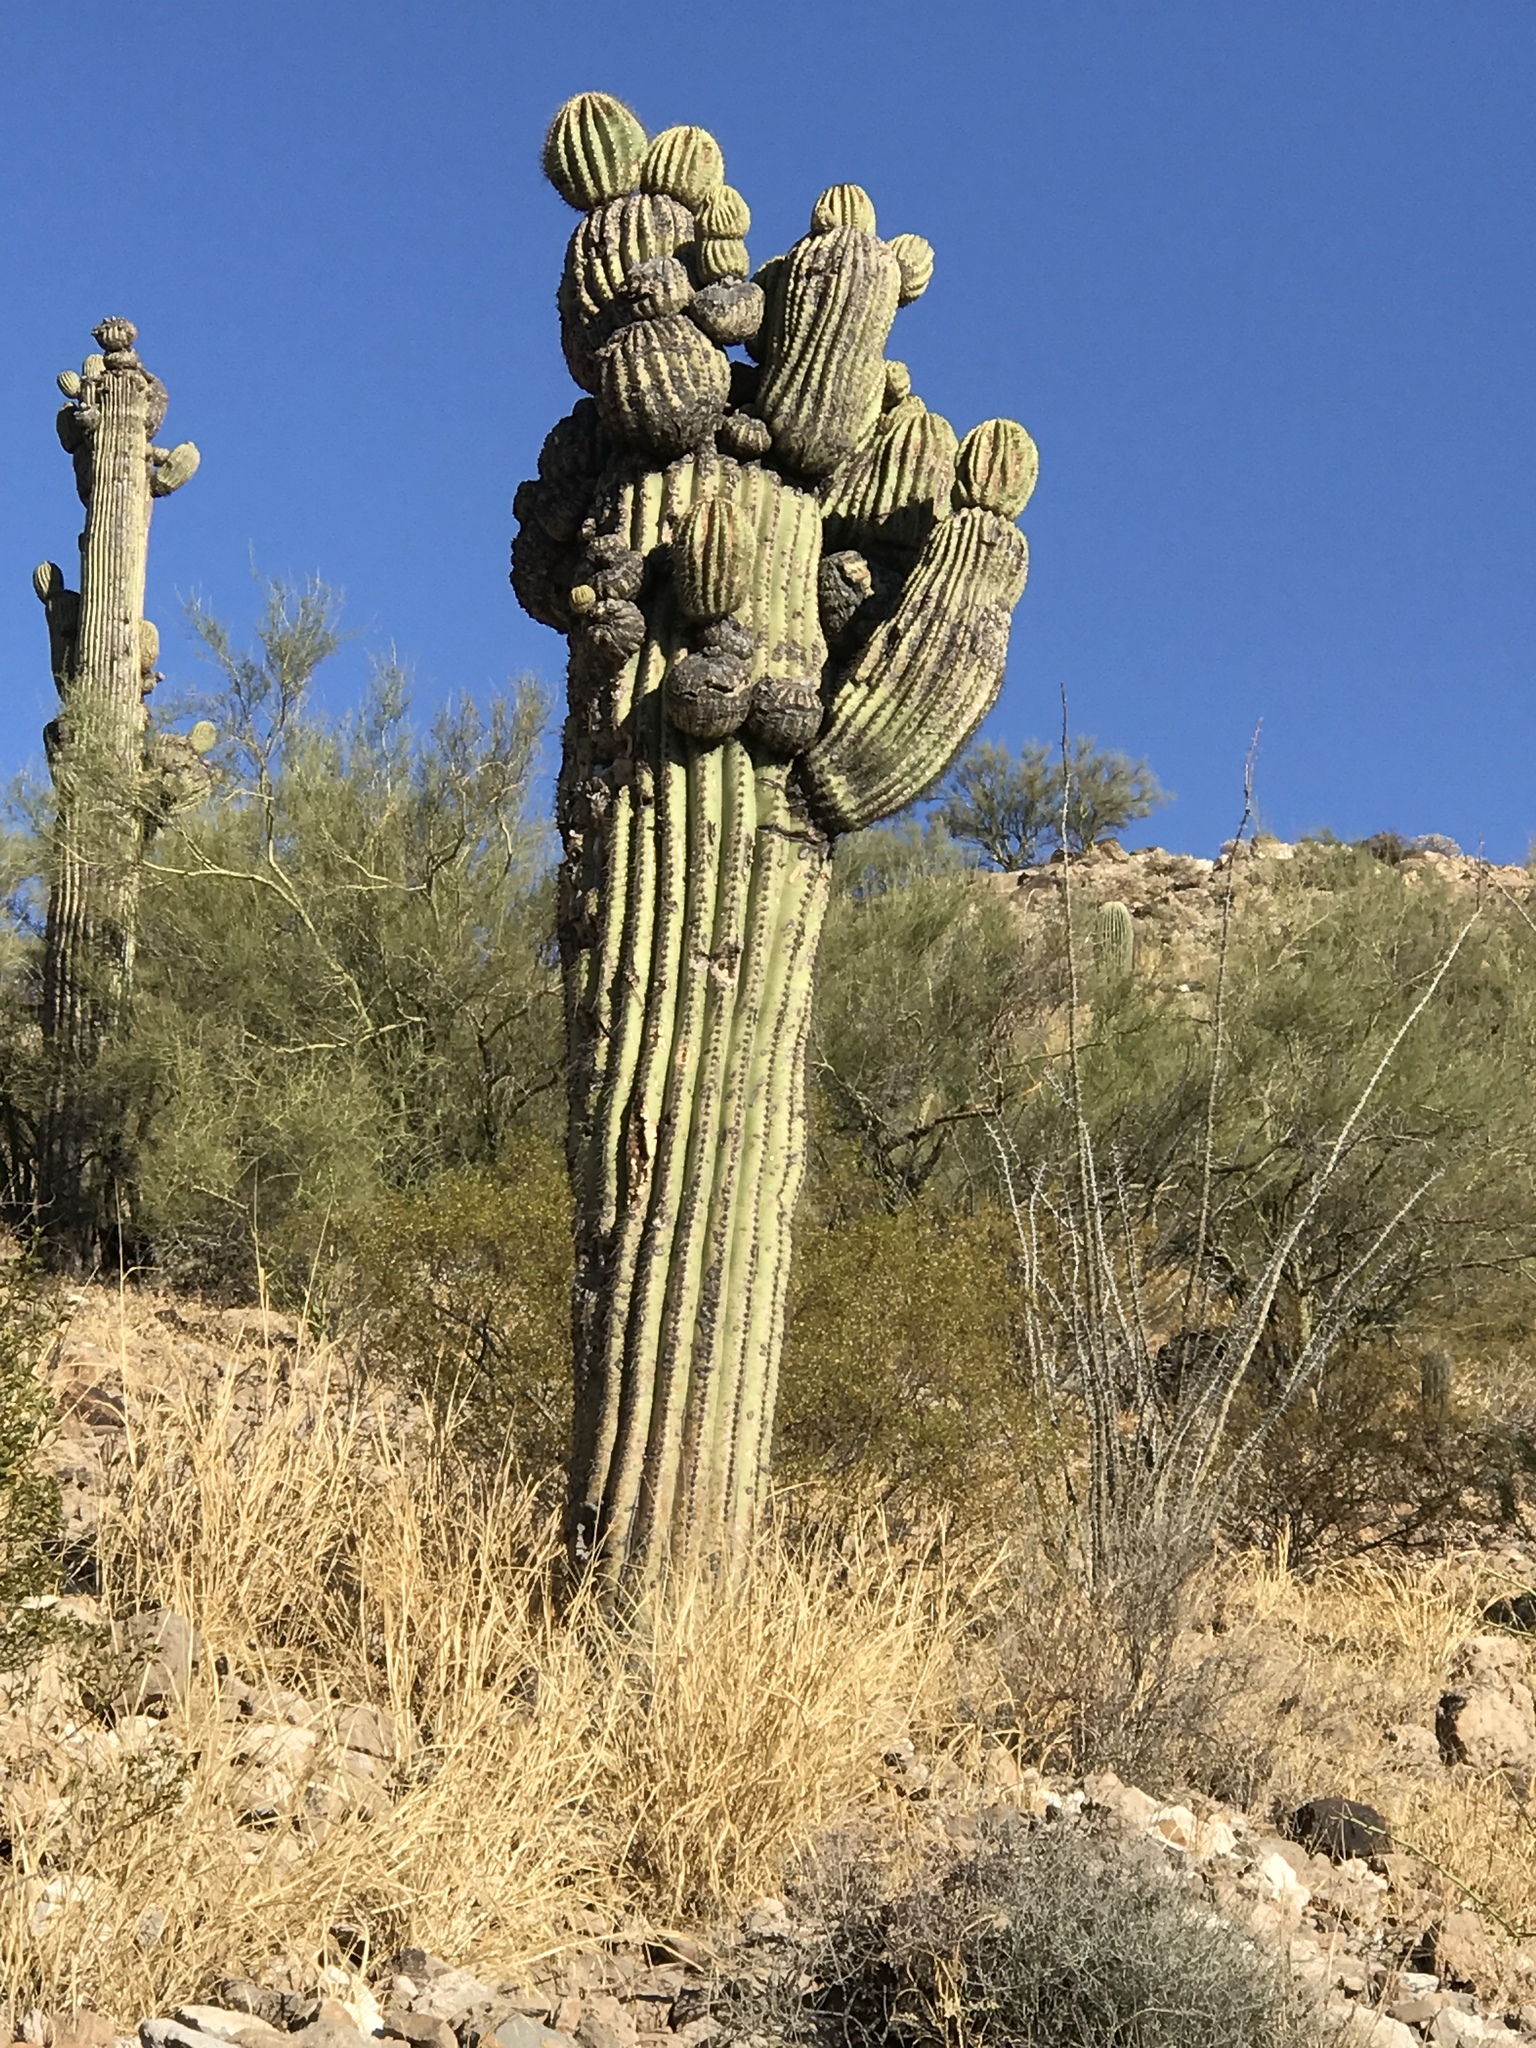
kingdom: Plantae
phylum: Tracheophyta
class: Magnoliopsida
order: Caryophyllales
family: Cactaceae
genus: Carnegiea
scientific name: Carnegiea gigantea
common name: Saguaro
